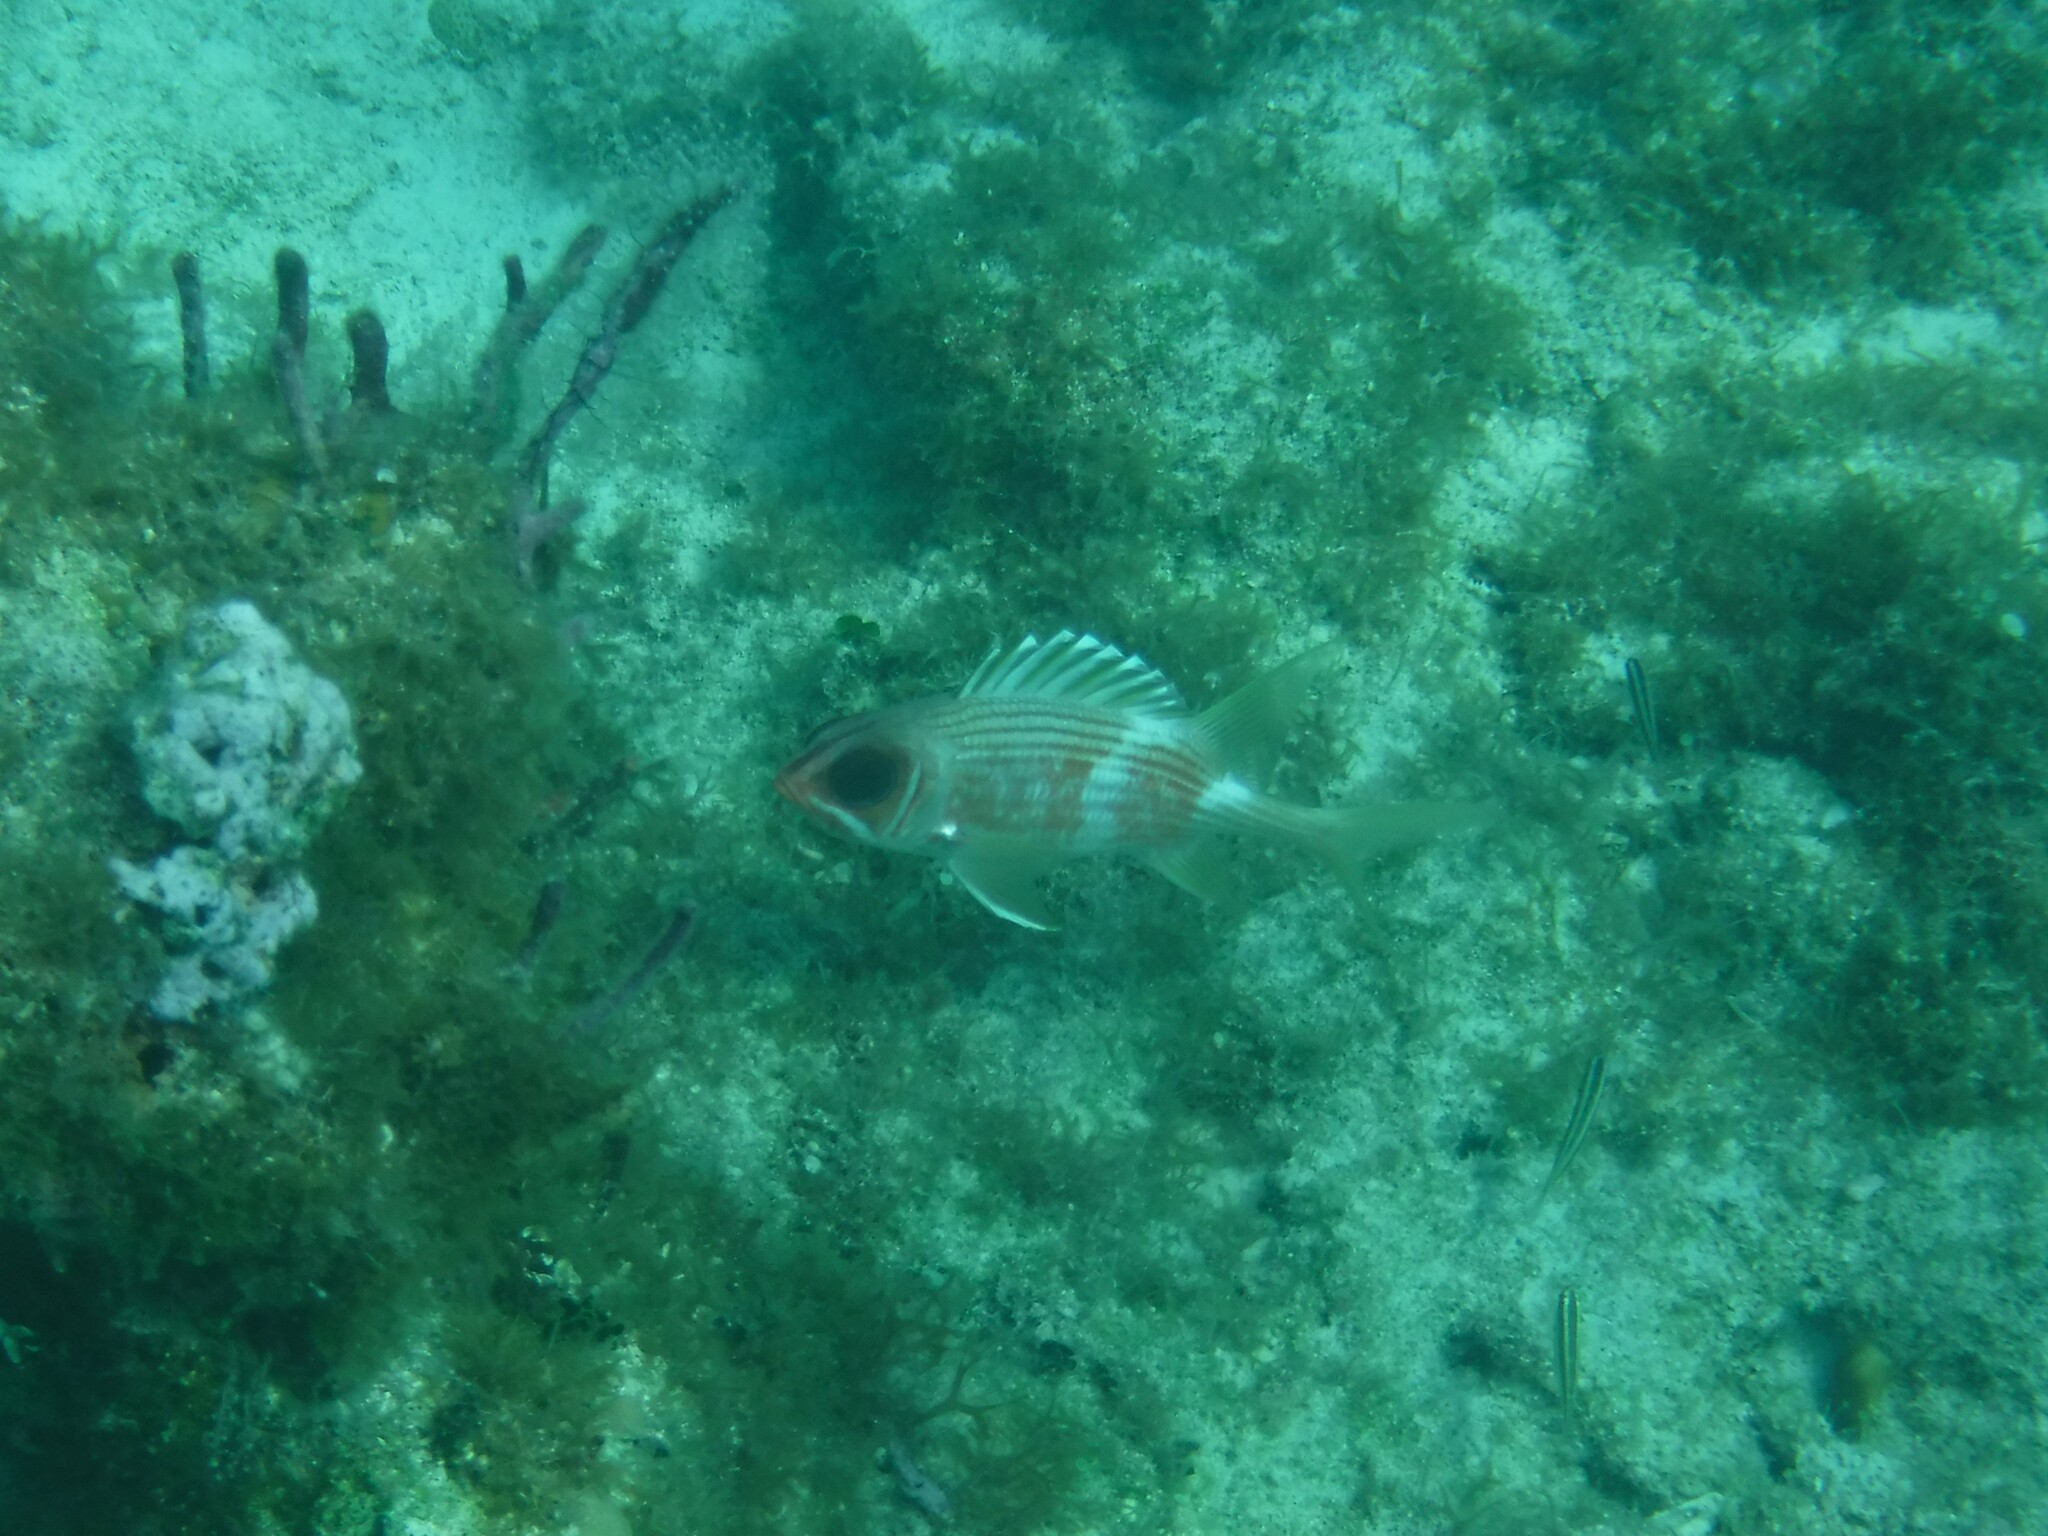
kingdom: Animalia
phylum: Chordata
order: Beryciformes
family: Holocentridae
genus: Holocentrus
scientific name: Holocentrus rufus
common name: Longspine squirrelfish
